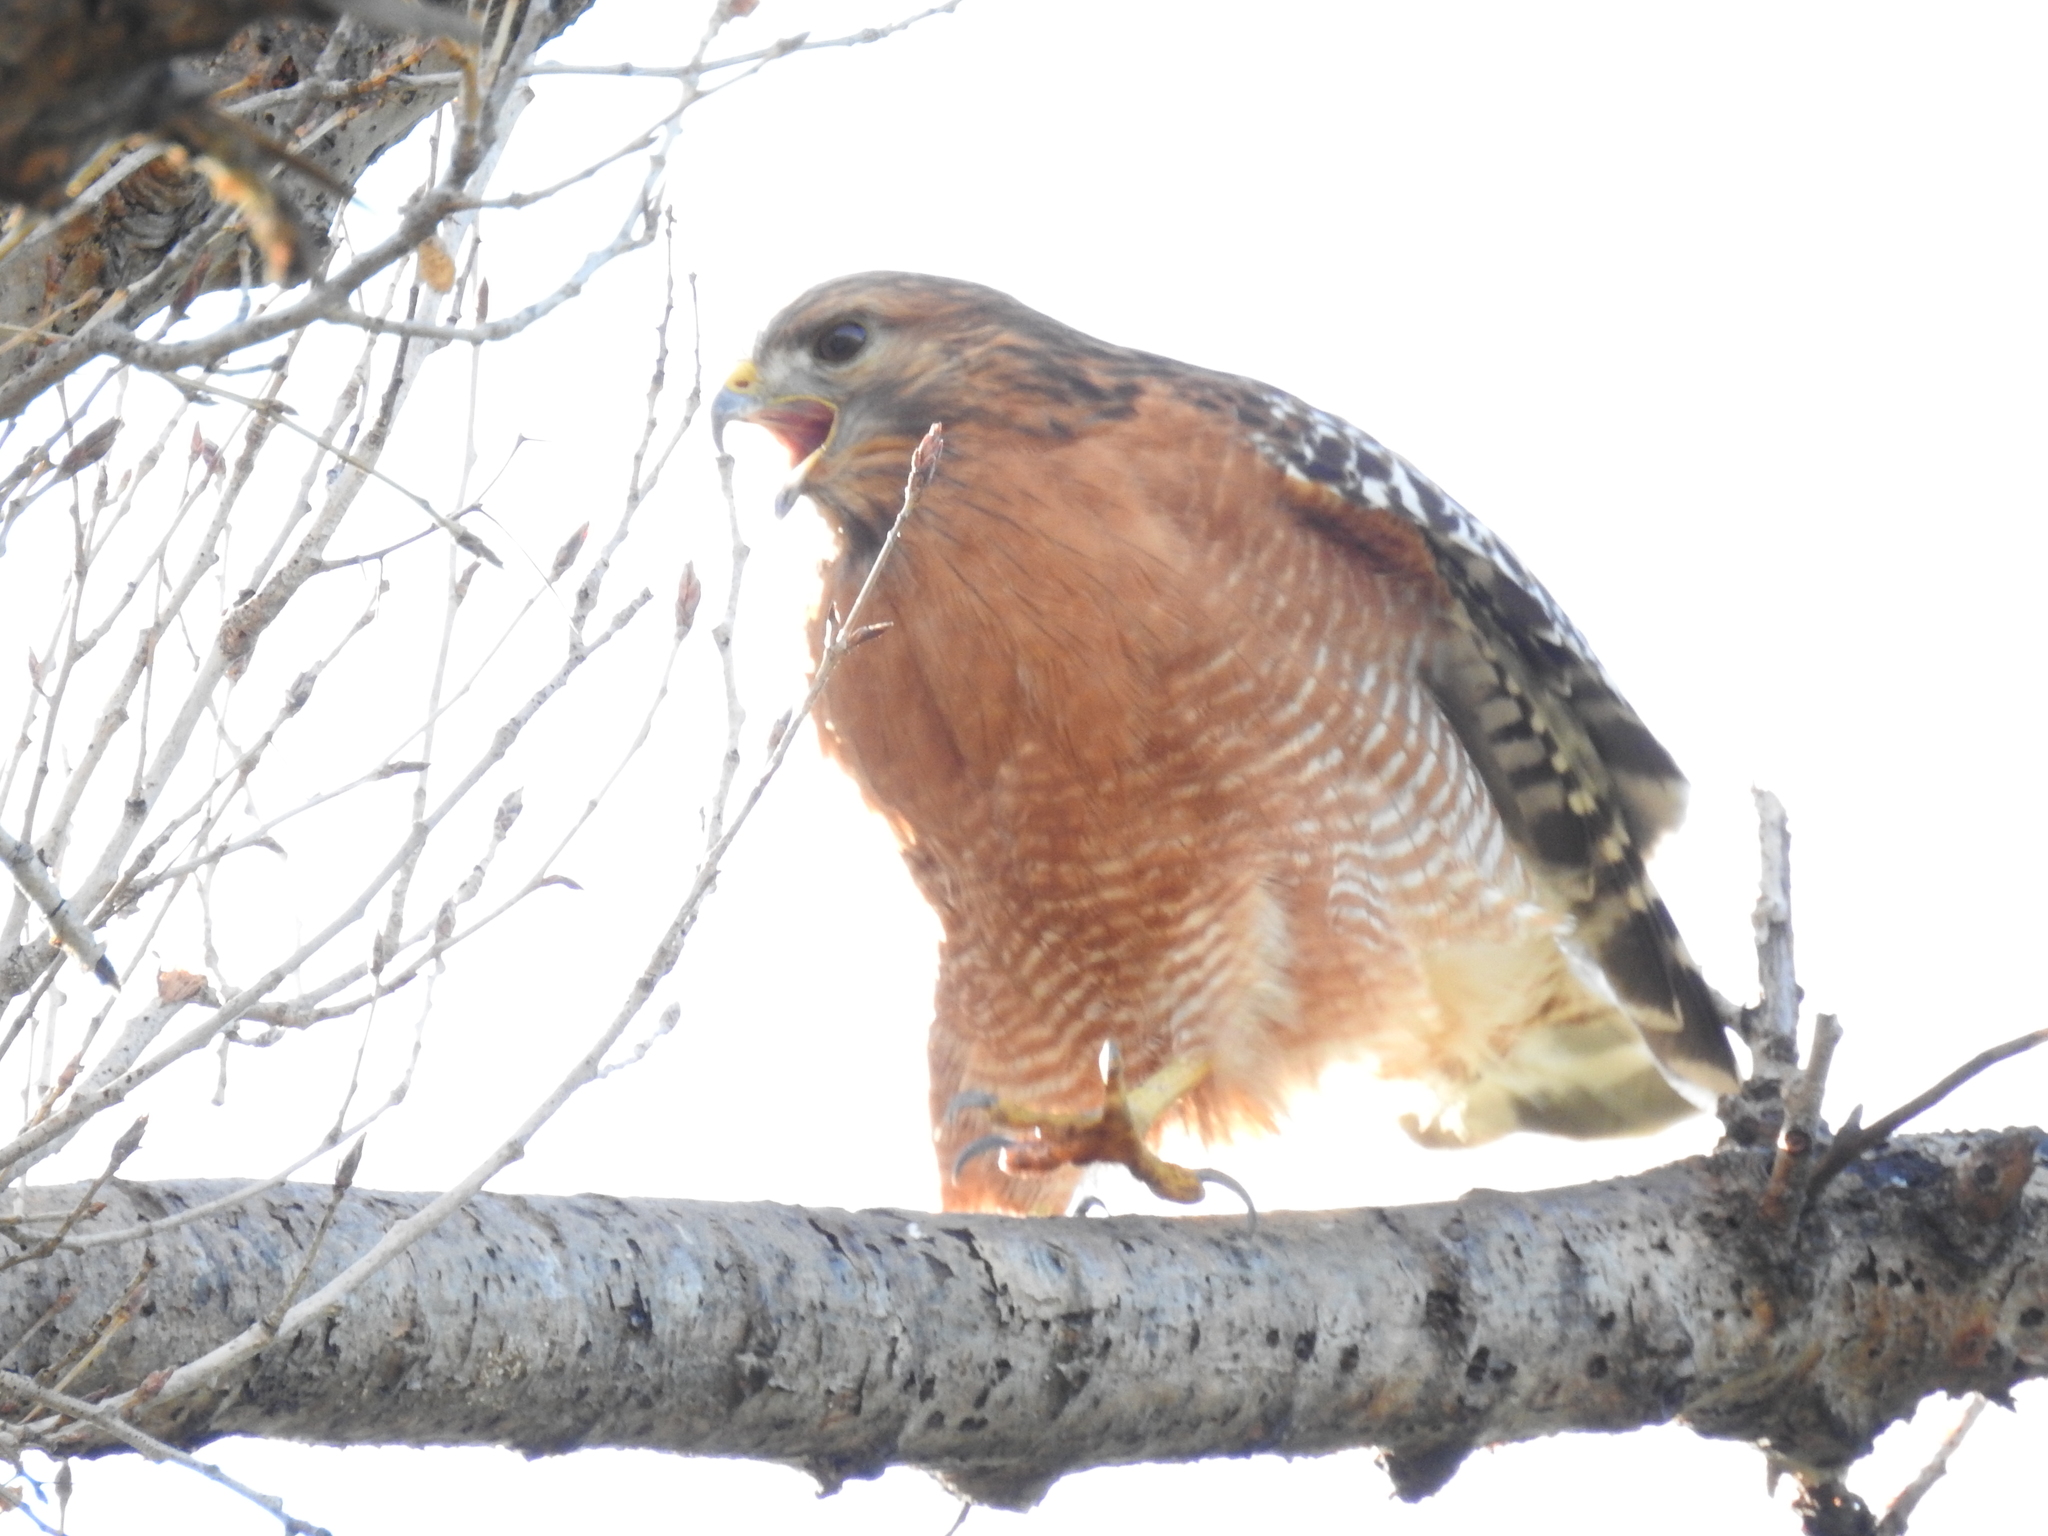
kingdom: Animalia
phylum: Chordata
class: Aves
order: Accipitriformes
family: Accipitridae
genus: Buteo
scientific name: Buteo lineatus
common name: Red-shouldered hawk
